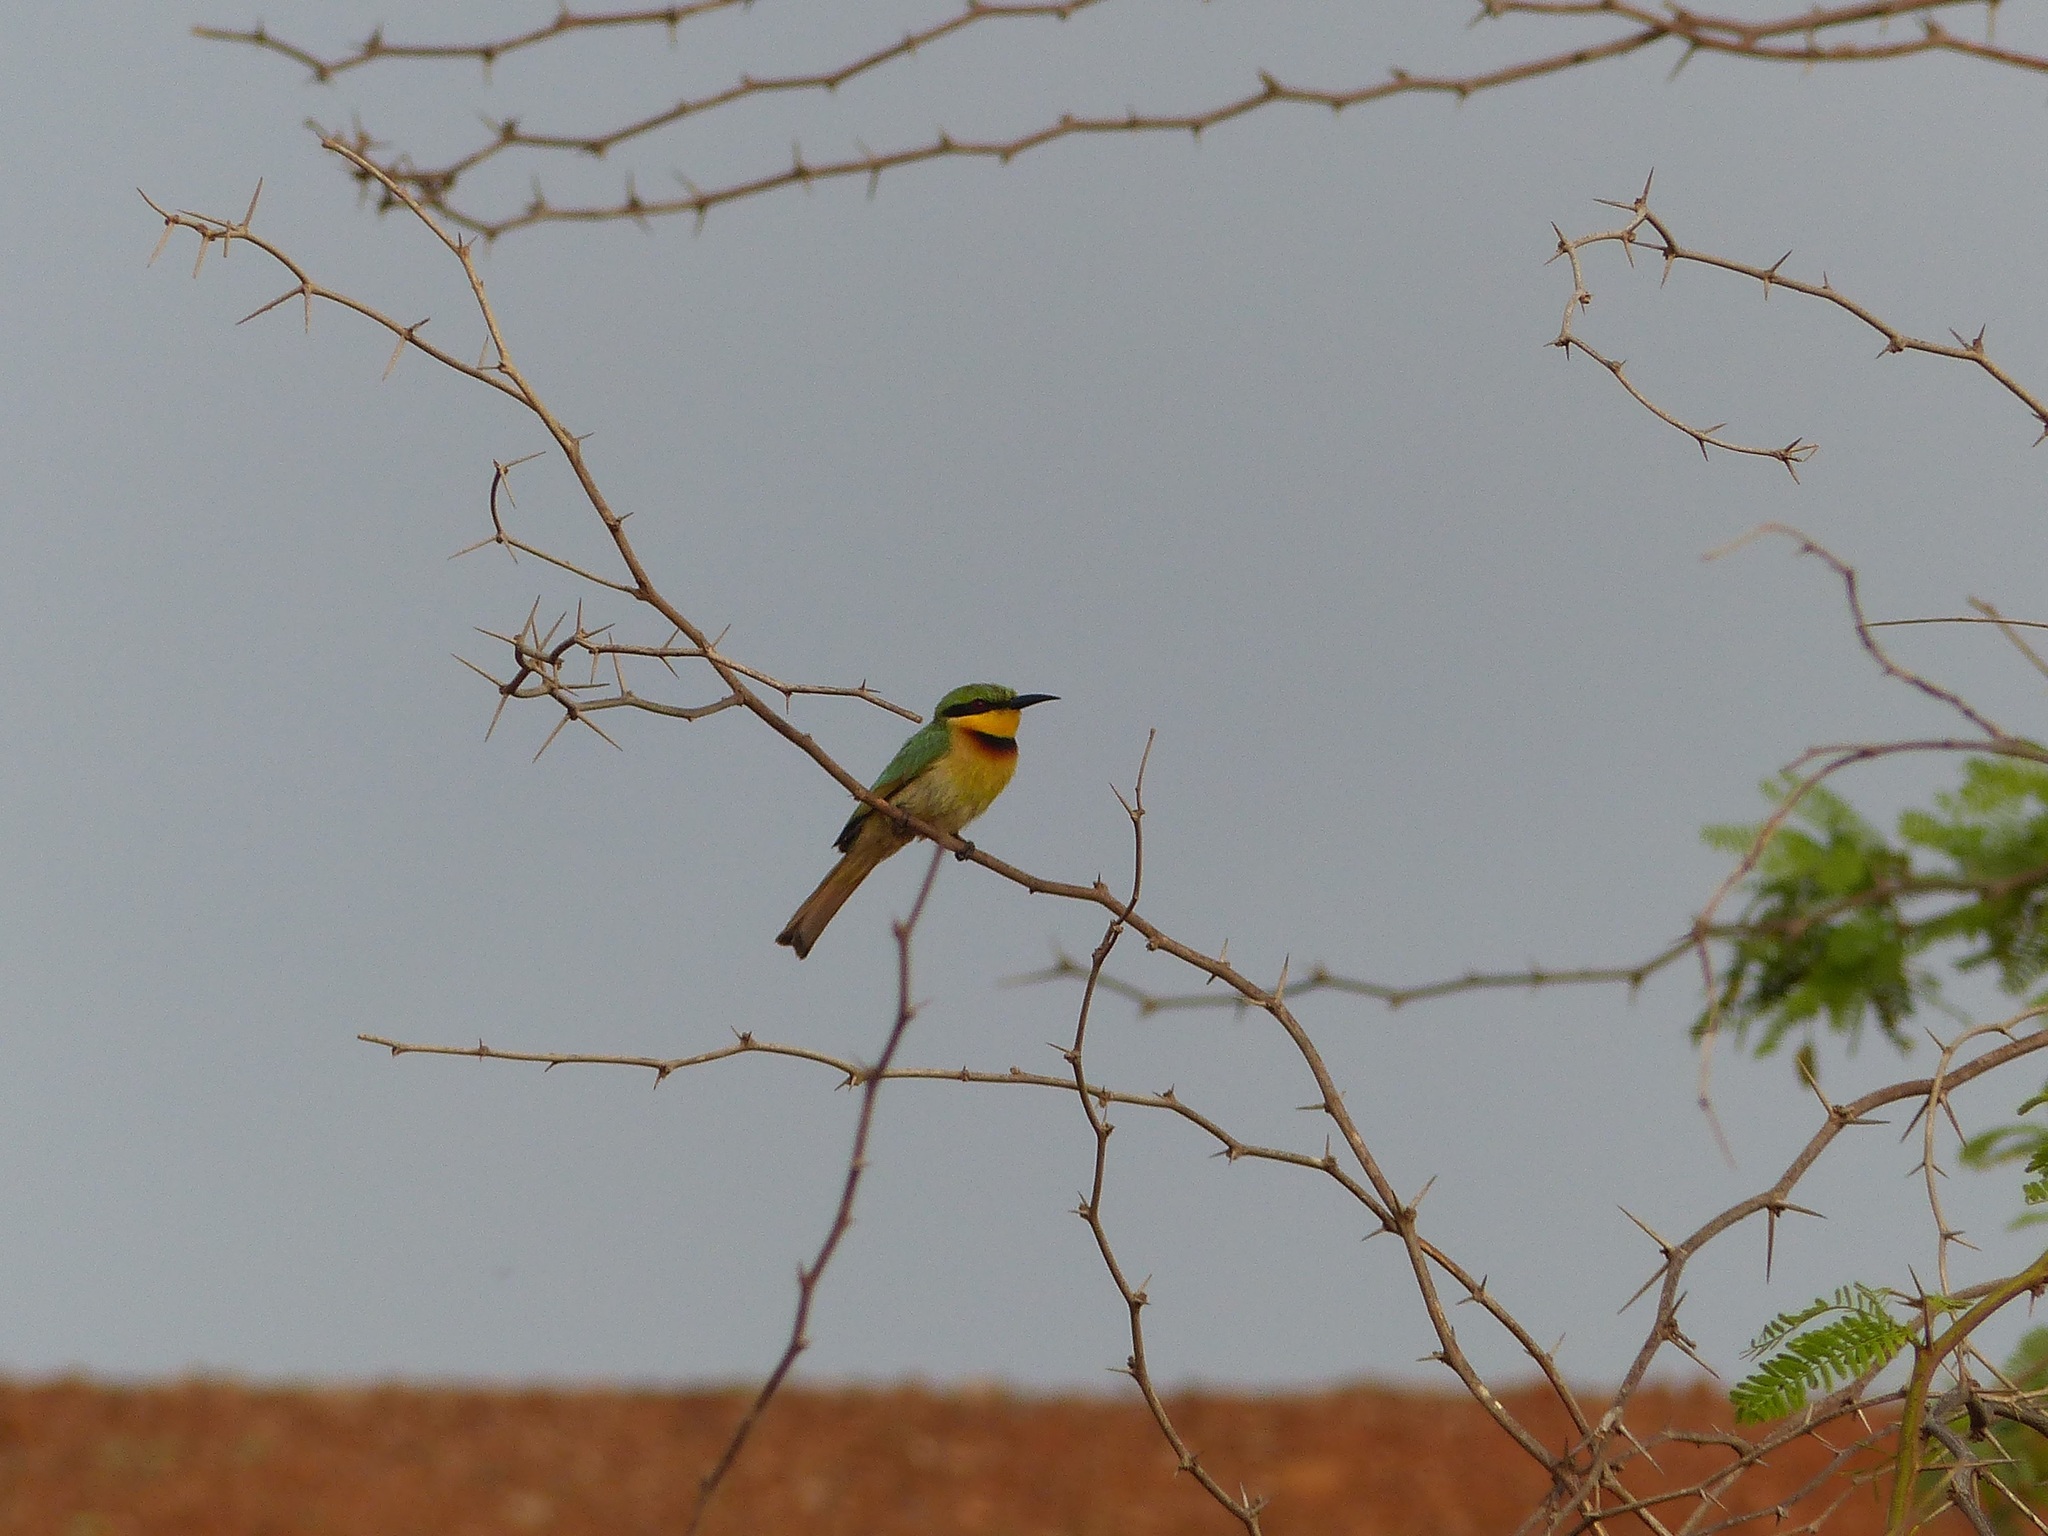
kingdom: Animalia
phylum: Chordata
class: Aves
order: Coraciiformes
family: Meropidae
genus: Merops
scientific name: Merops pusillus
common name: Little bee-eater
